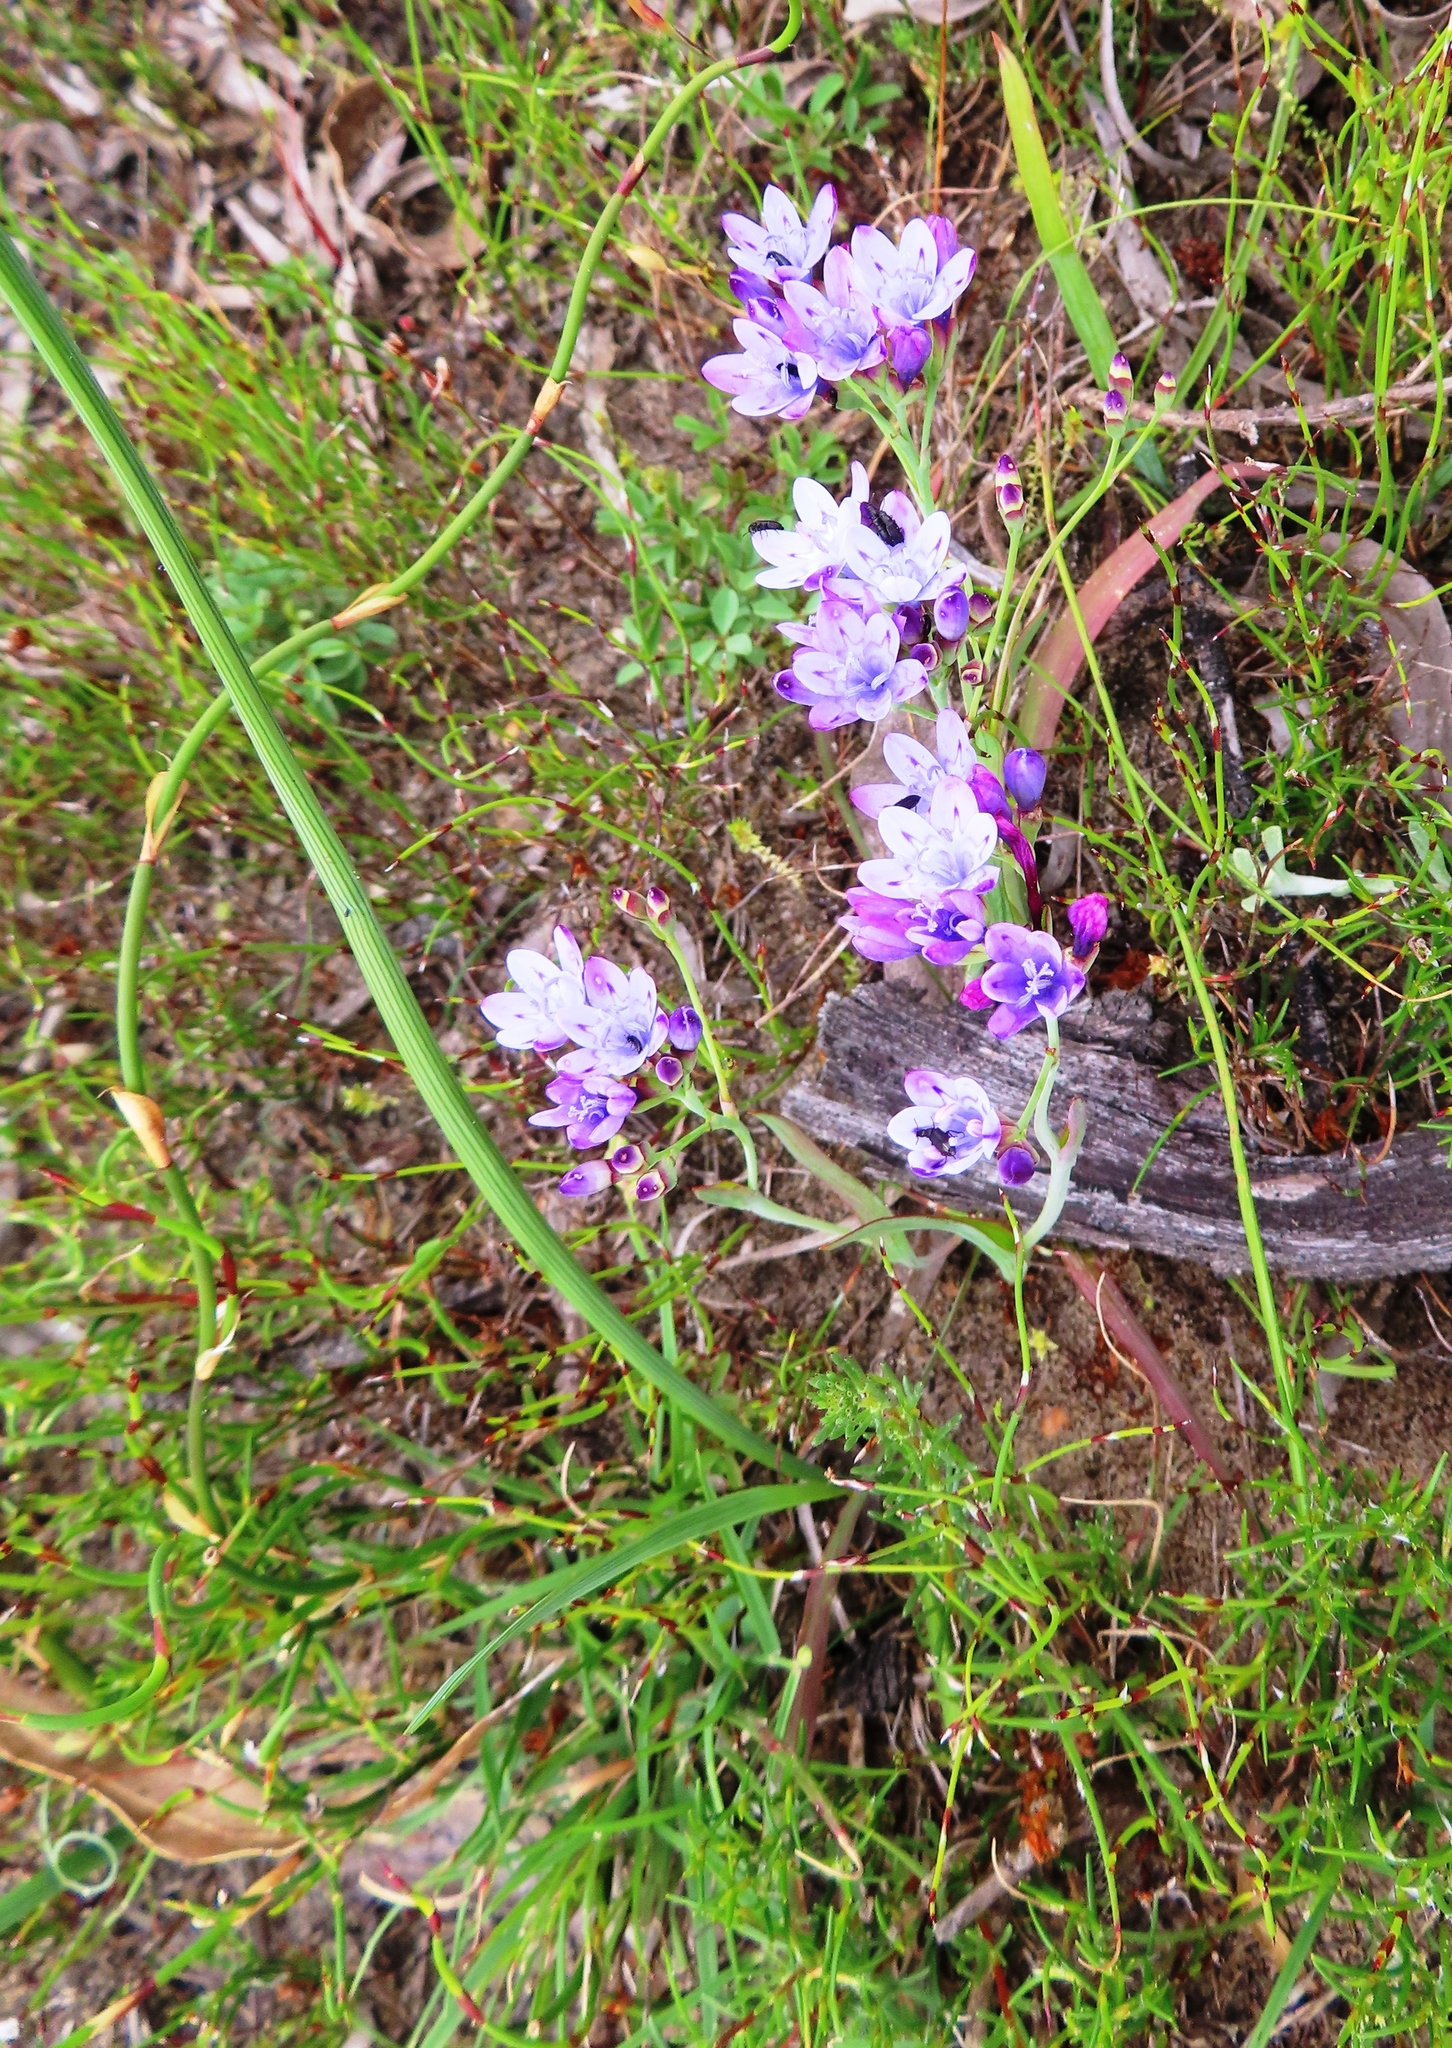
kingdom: Plantae
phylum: Tracheophyta
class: Liliopsida
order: Asparagales
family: Iridaceae
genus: Codonorhiza
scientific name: Codonorhiza corymbosa
